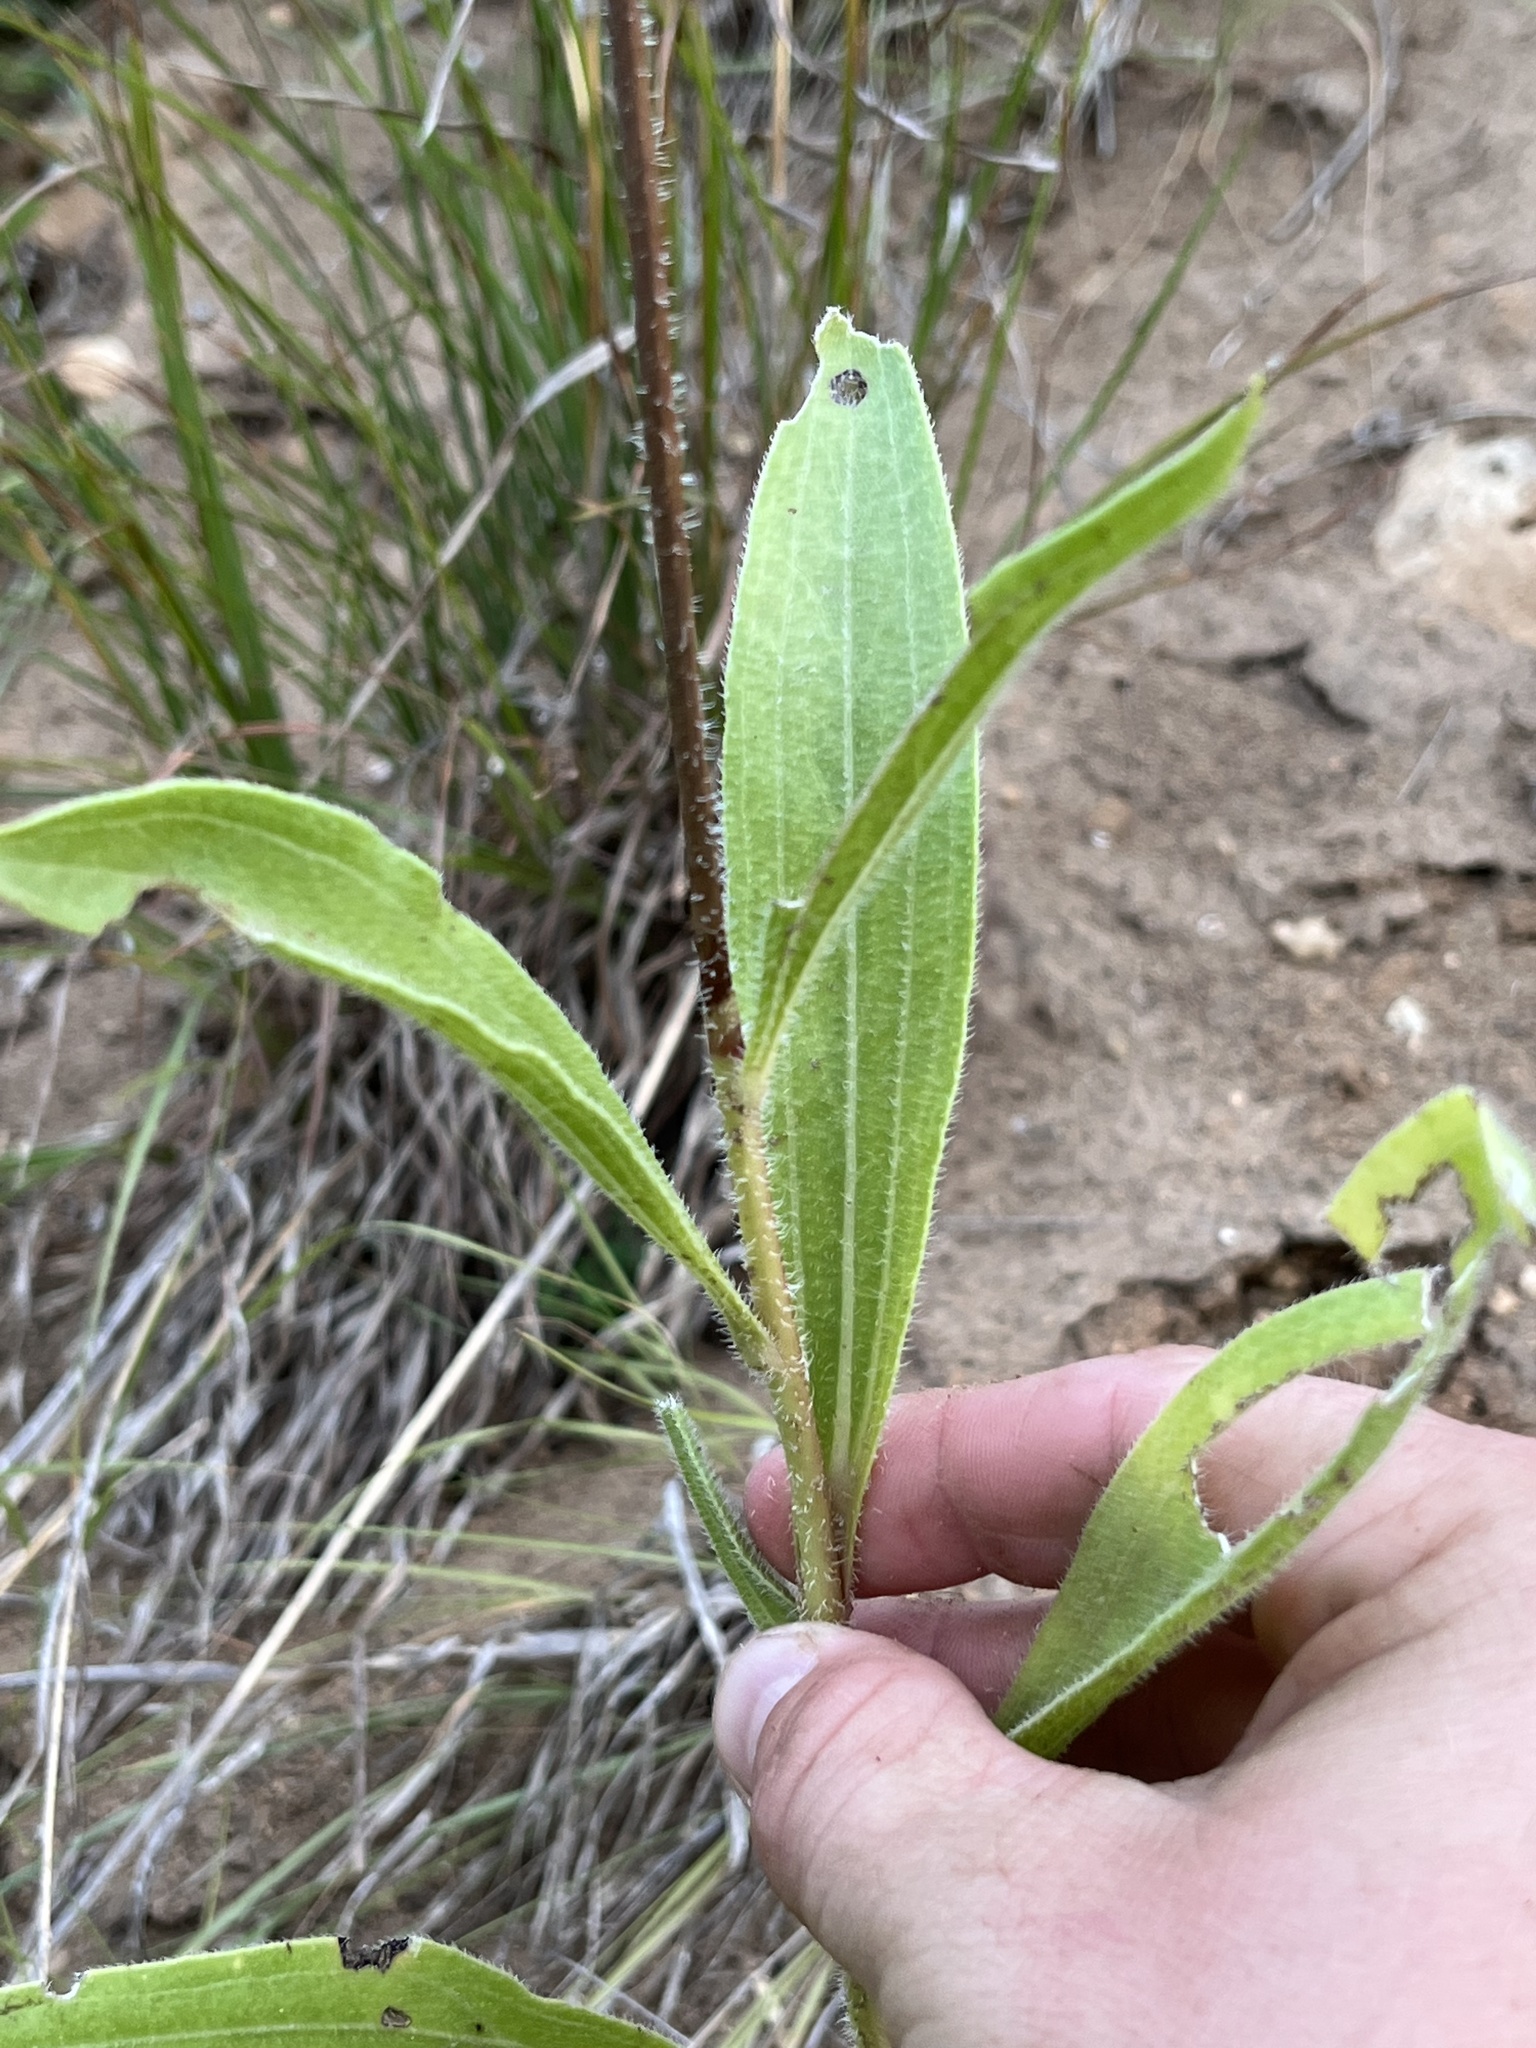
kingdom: Plantae
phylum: Tracheophyta
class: Magnoliopsida
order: Asterales
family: Asteraceae
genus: Echinacea
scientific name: Echinacea angustifolia
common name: Black-sampson echinacea
